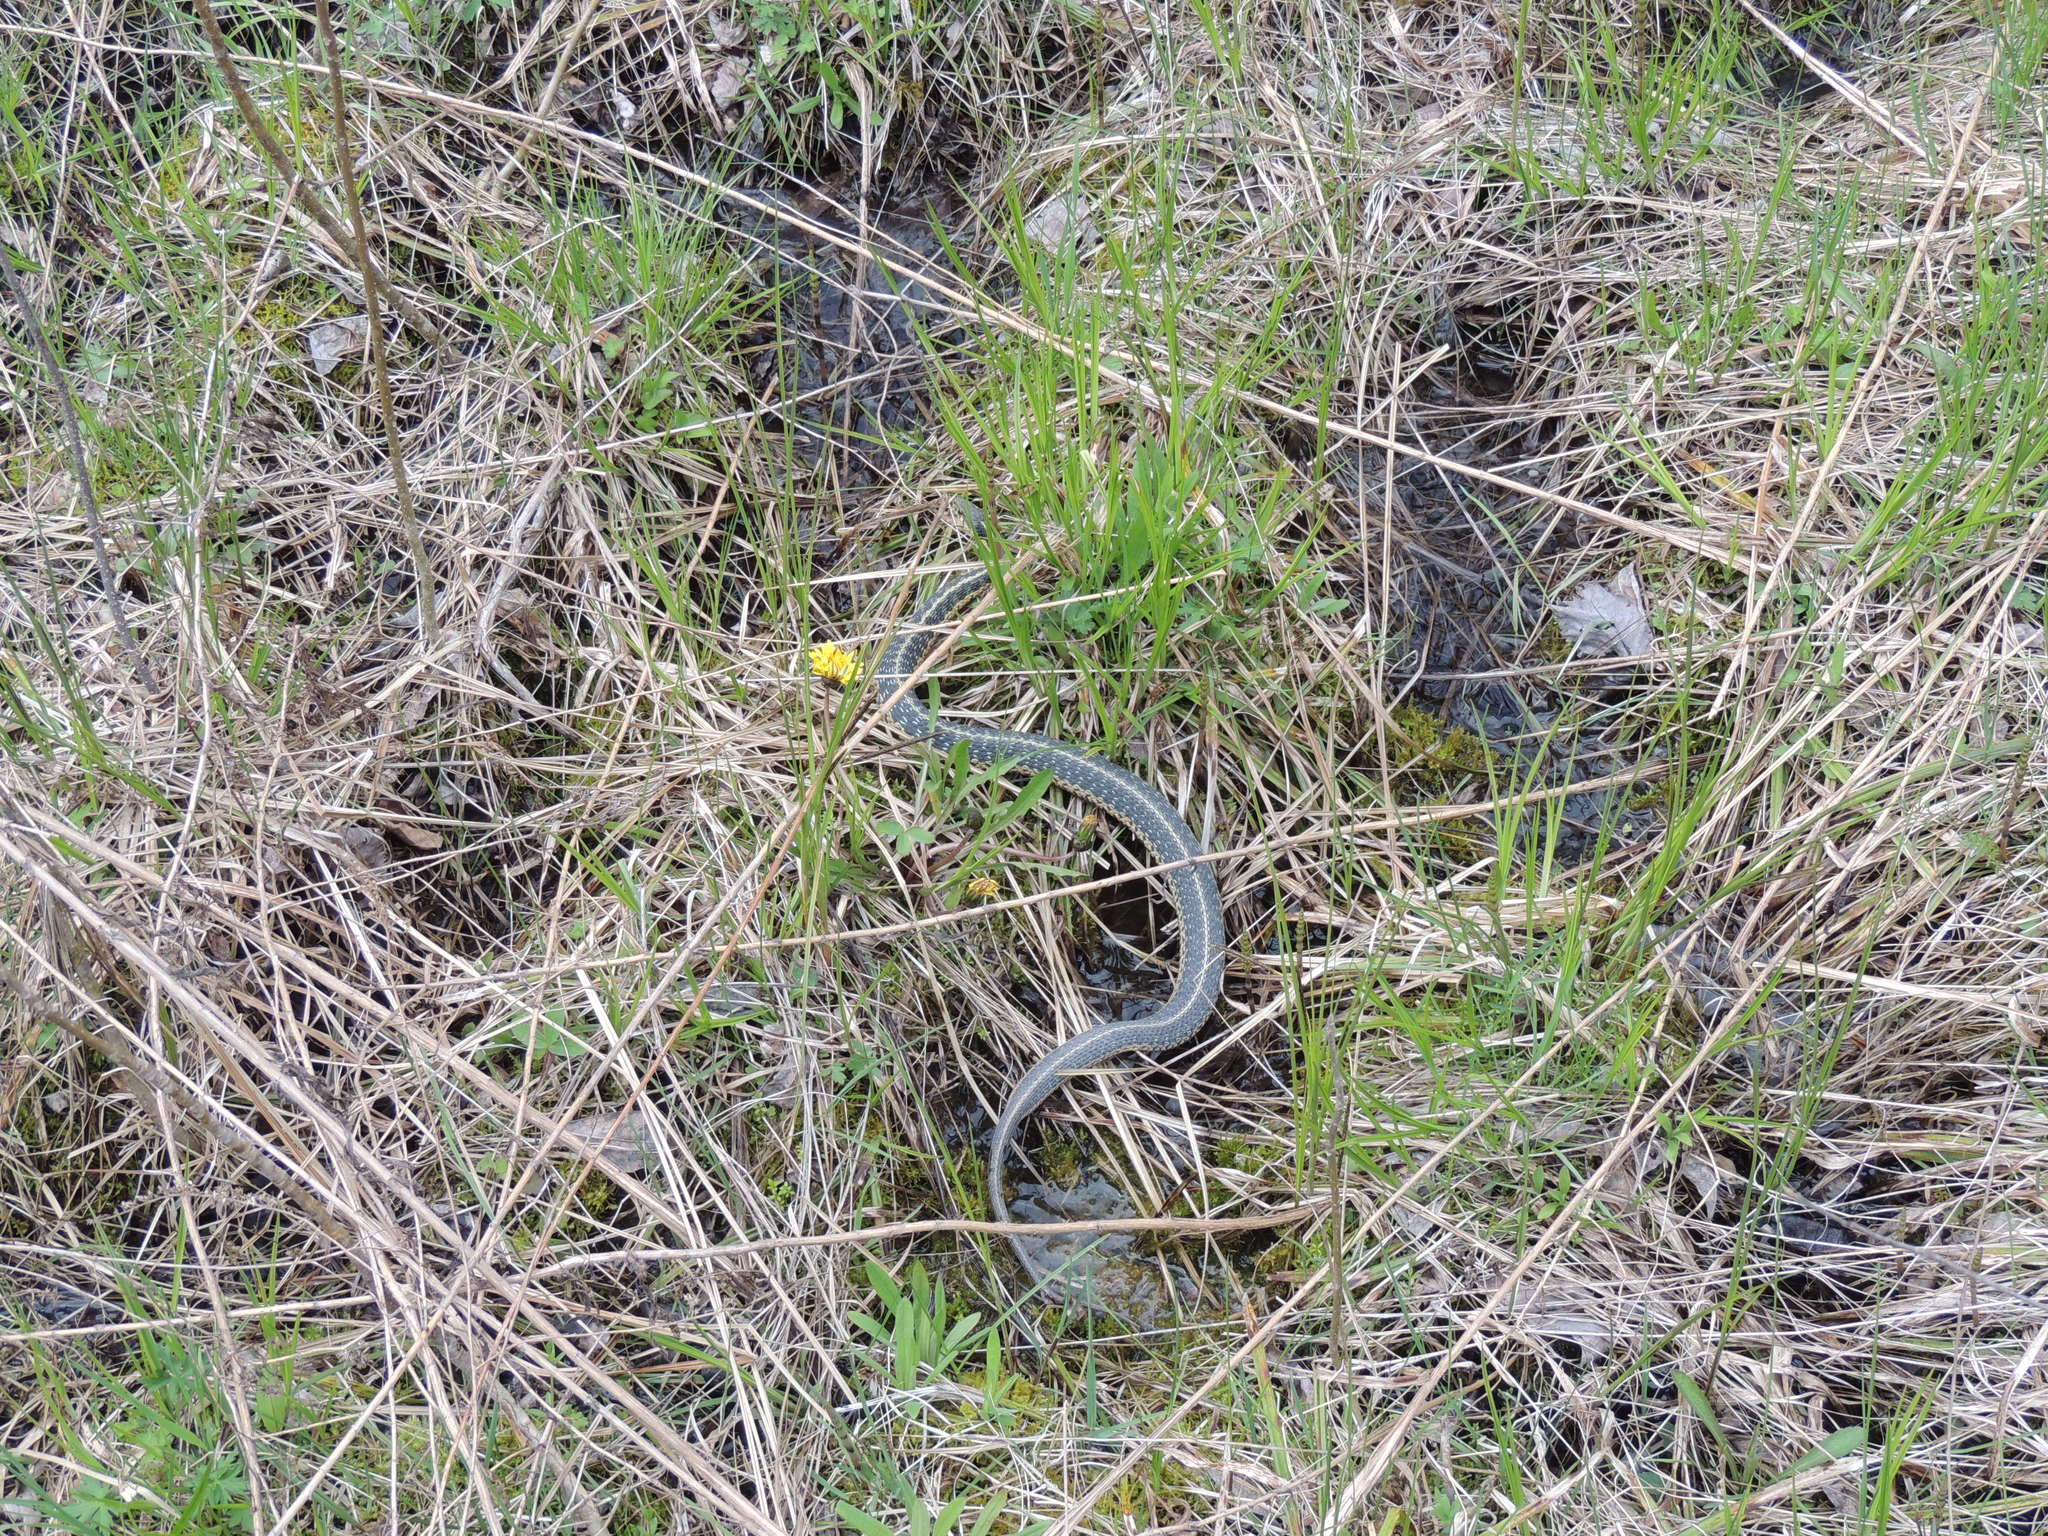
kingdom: Animalia
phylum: Chordata
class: Squamata
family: Colubridae
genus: Thamnophis
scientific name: Thamnophis sirtalis
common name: Common garter snake
